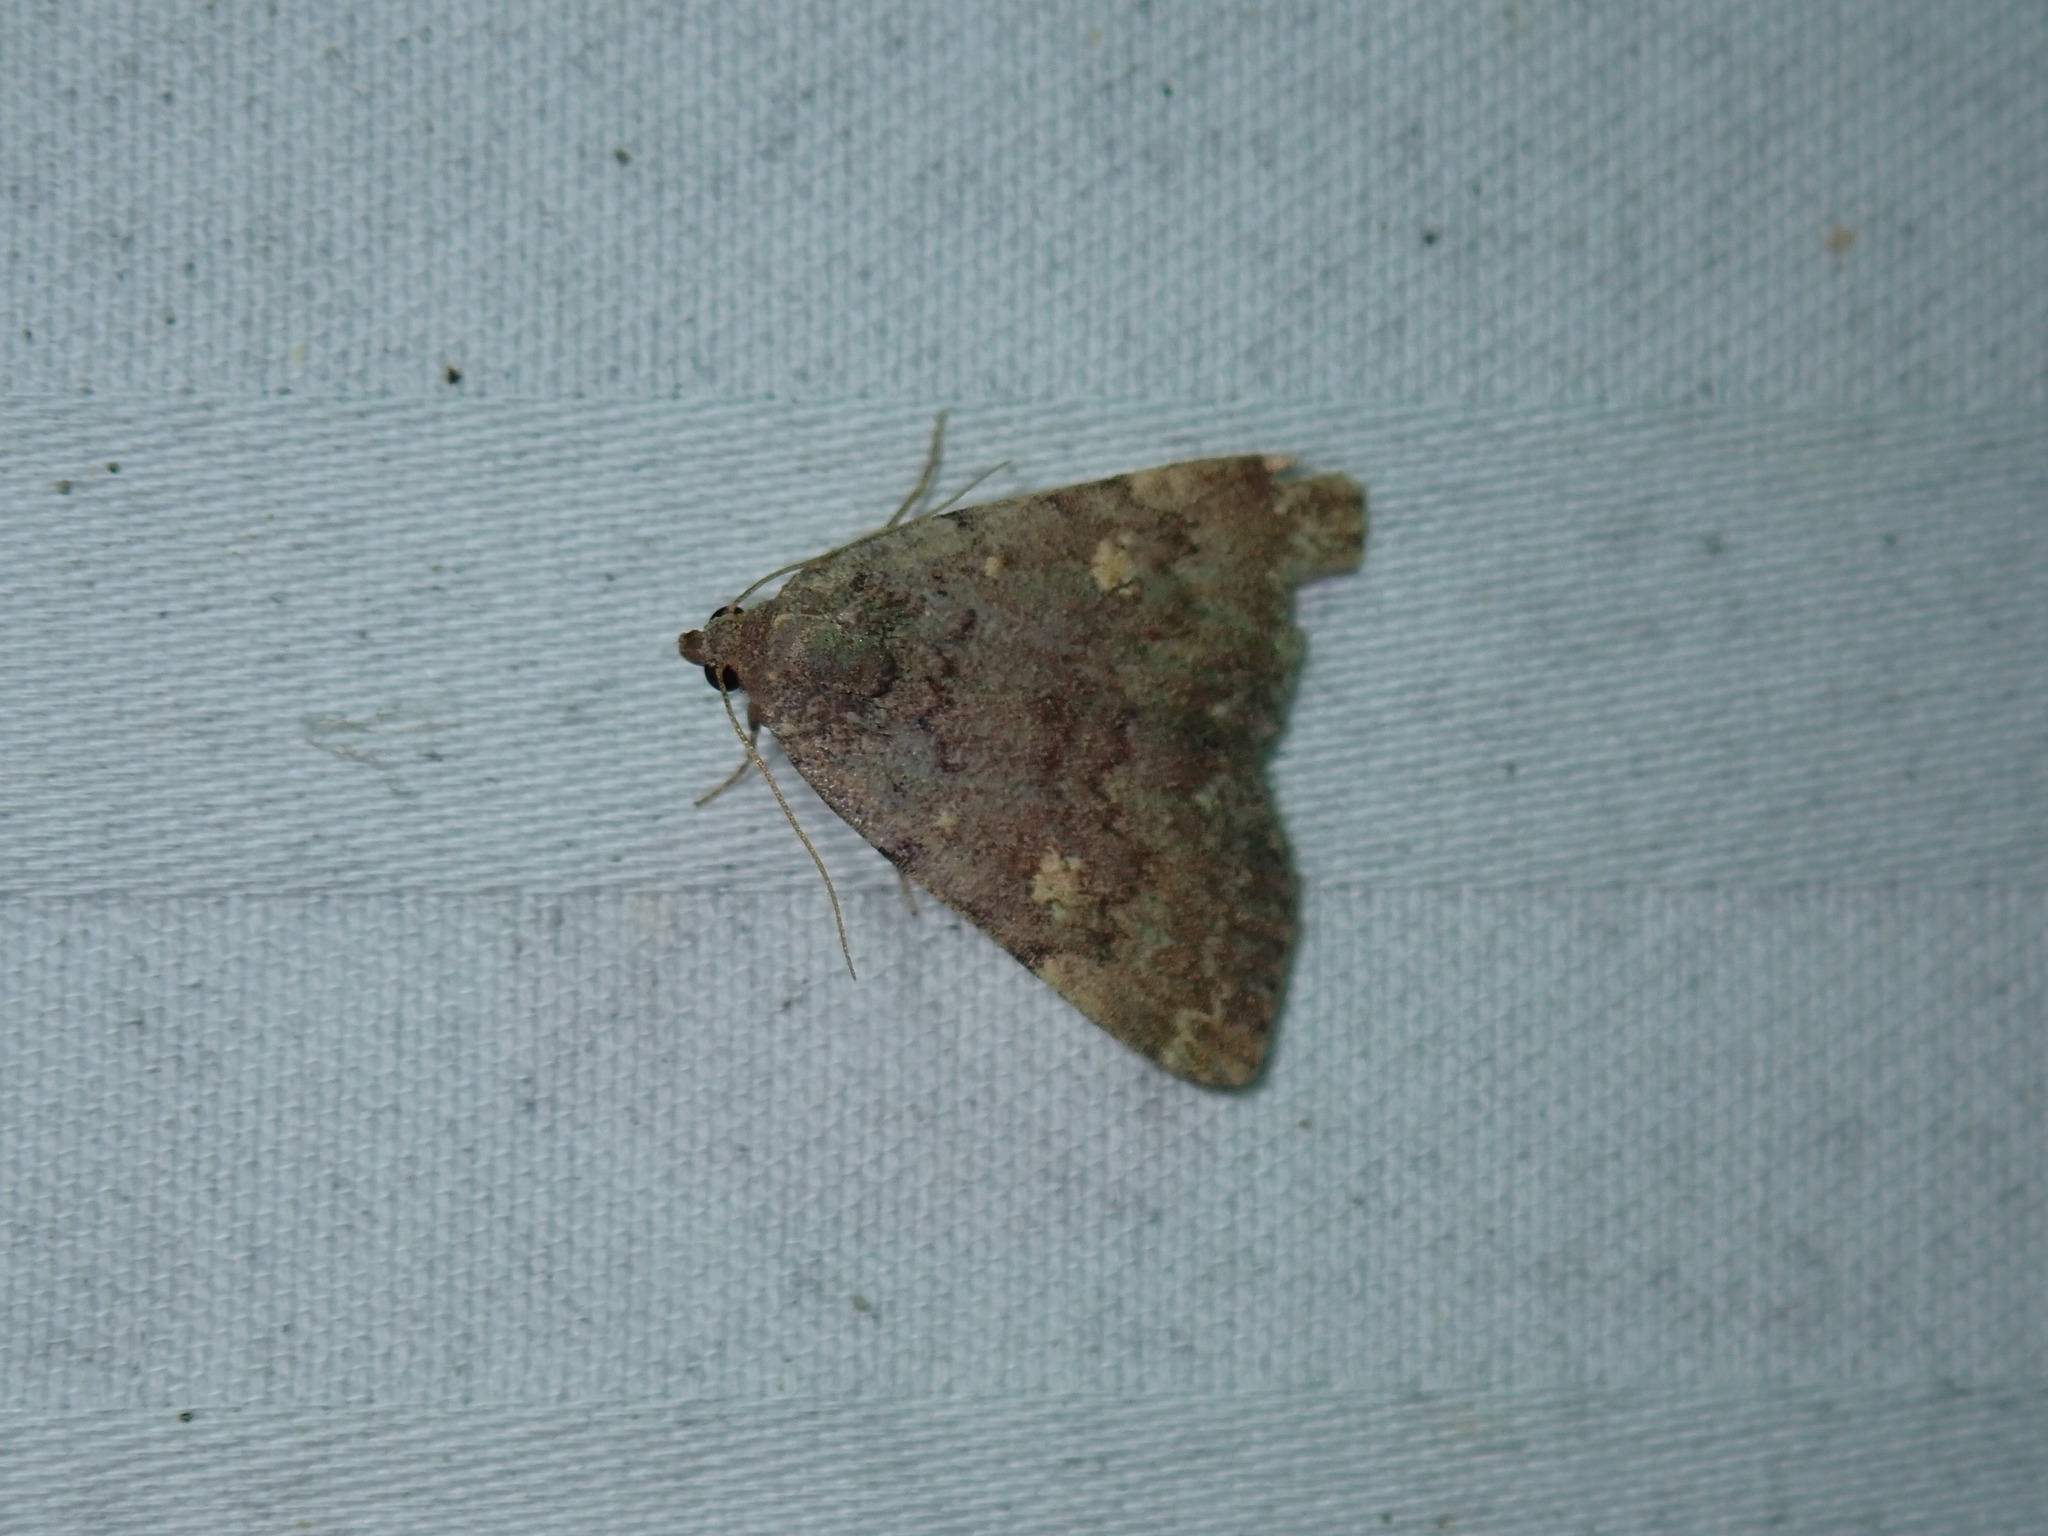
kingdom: Animalia
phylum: Arthropoda
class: Insecta
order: Lepidoptera
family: Erebidae
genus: Idia
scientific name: Idia aemula
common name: Common idia moth
